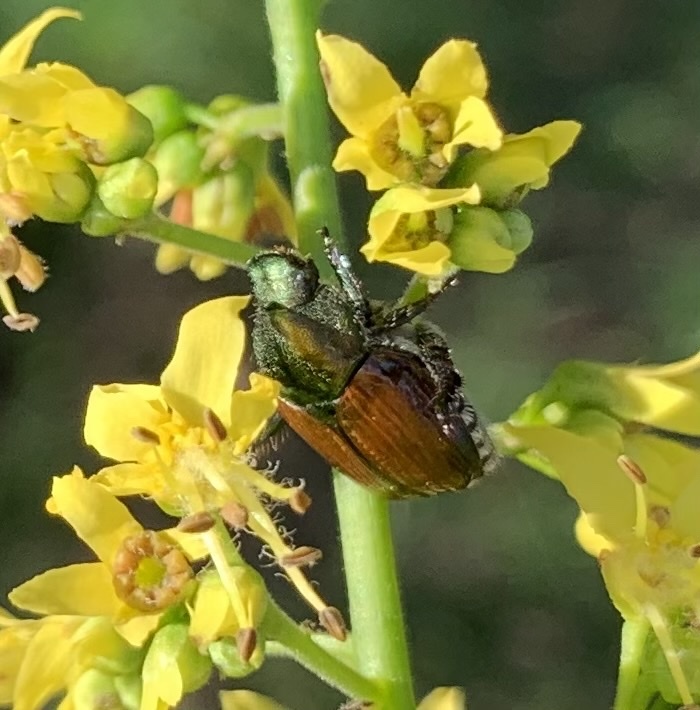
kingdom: Animalia
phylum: Arthropoda
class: Insecta
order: Coleoptera
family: Scarabaeidae
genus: Popillia
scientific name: Popillia japonica
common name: Japanese beetle
